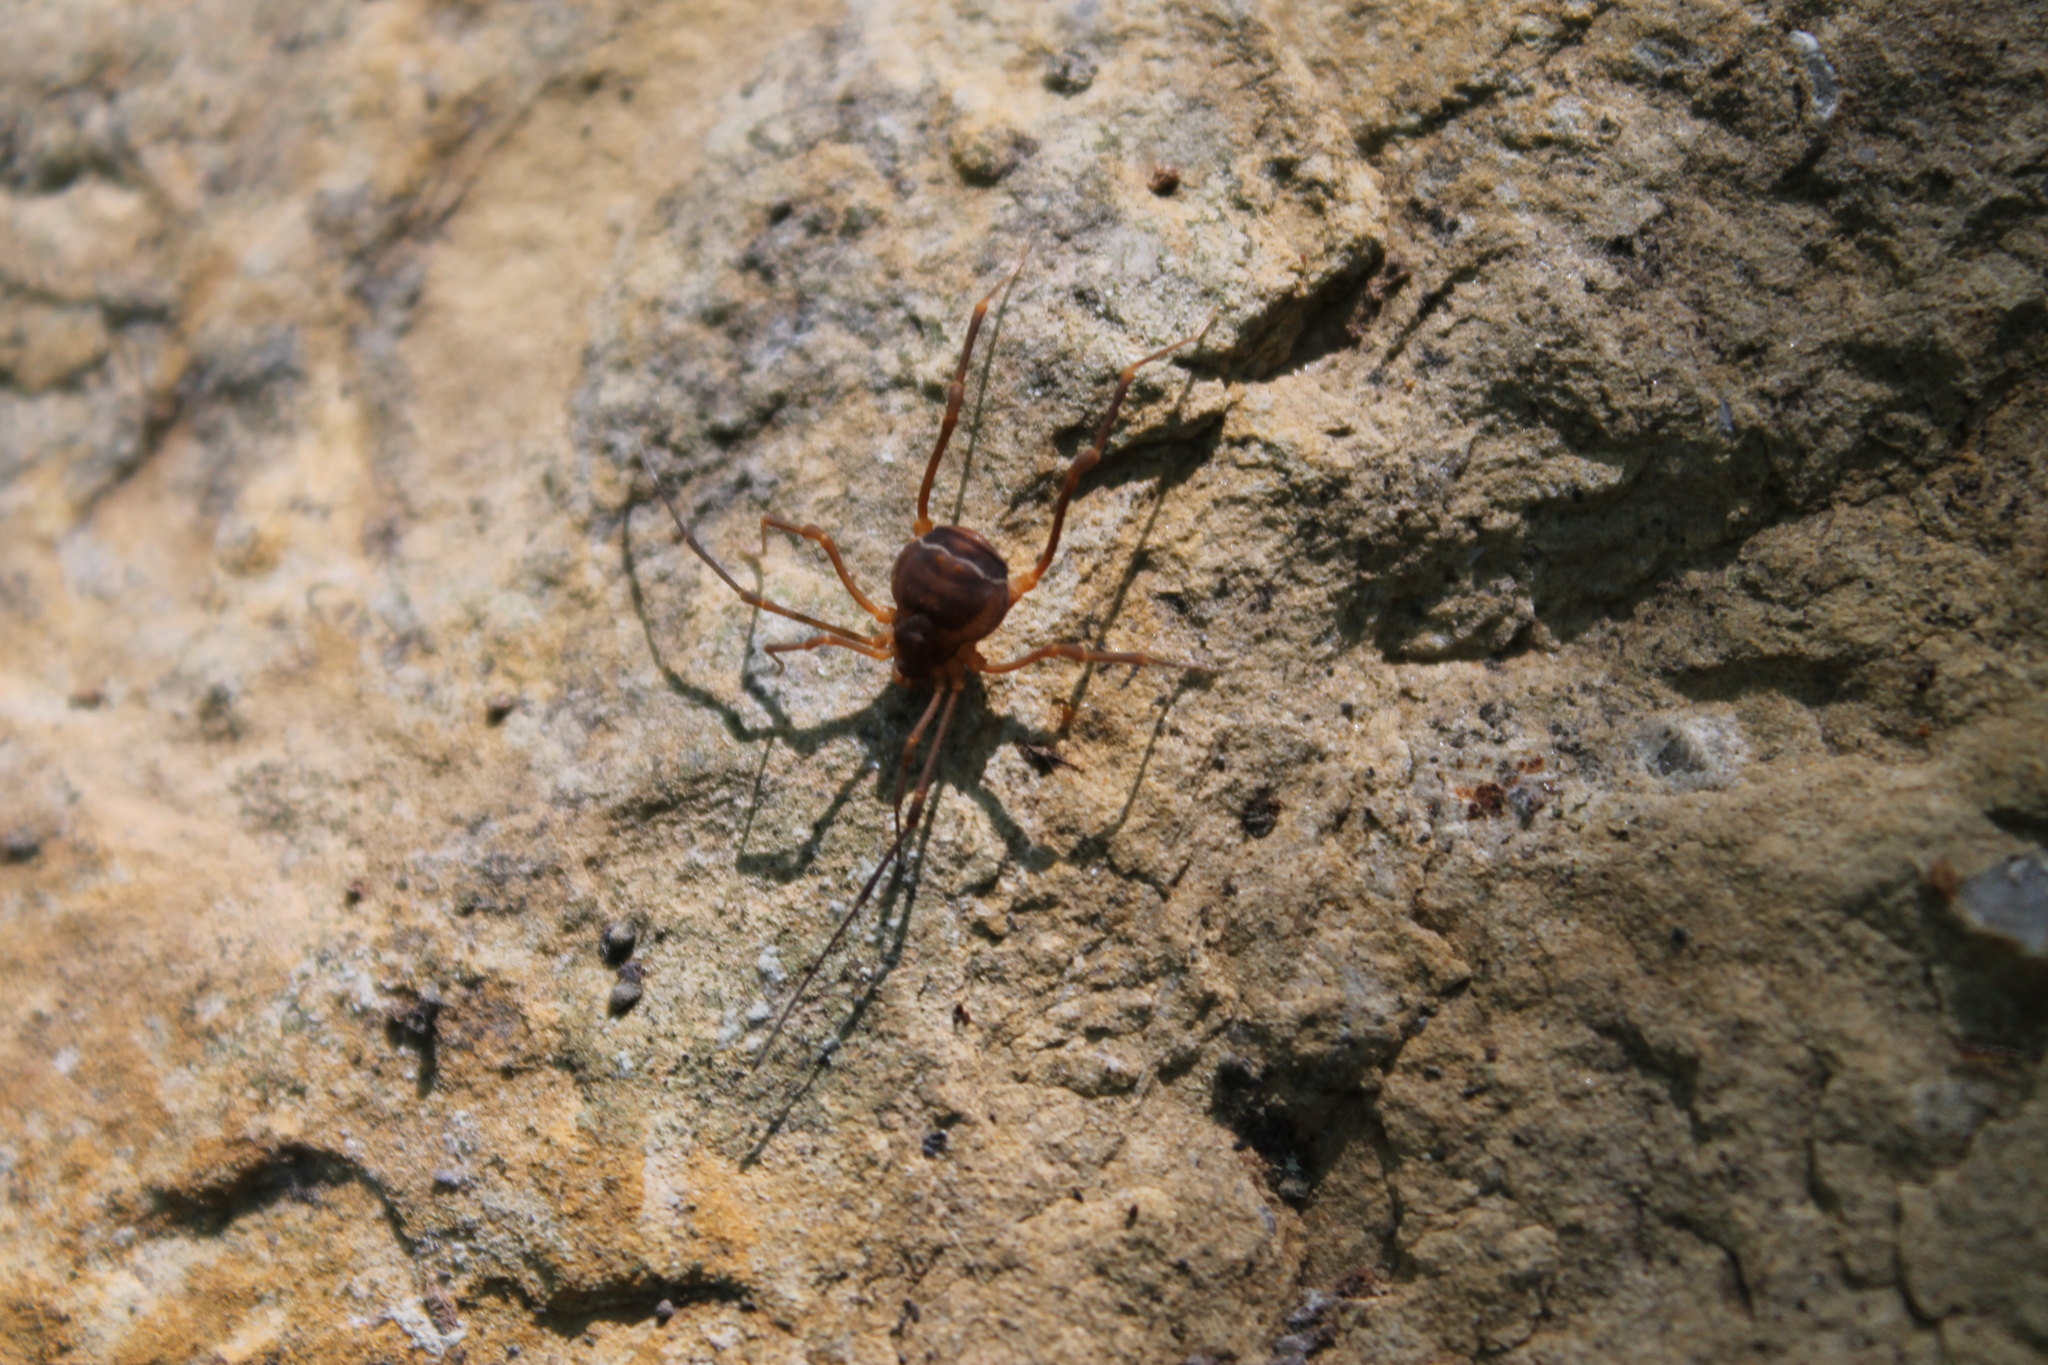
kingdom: Animalia
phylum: Arthropoda
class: Arachnida
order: Opiliones
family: Cosmetidae
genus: Libitioides
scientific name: Libitioides sayi
